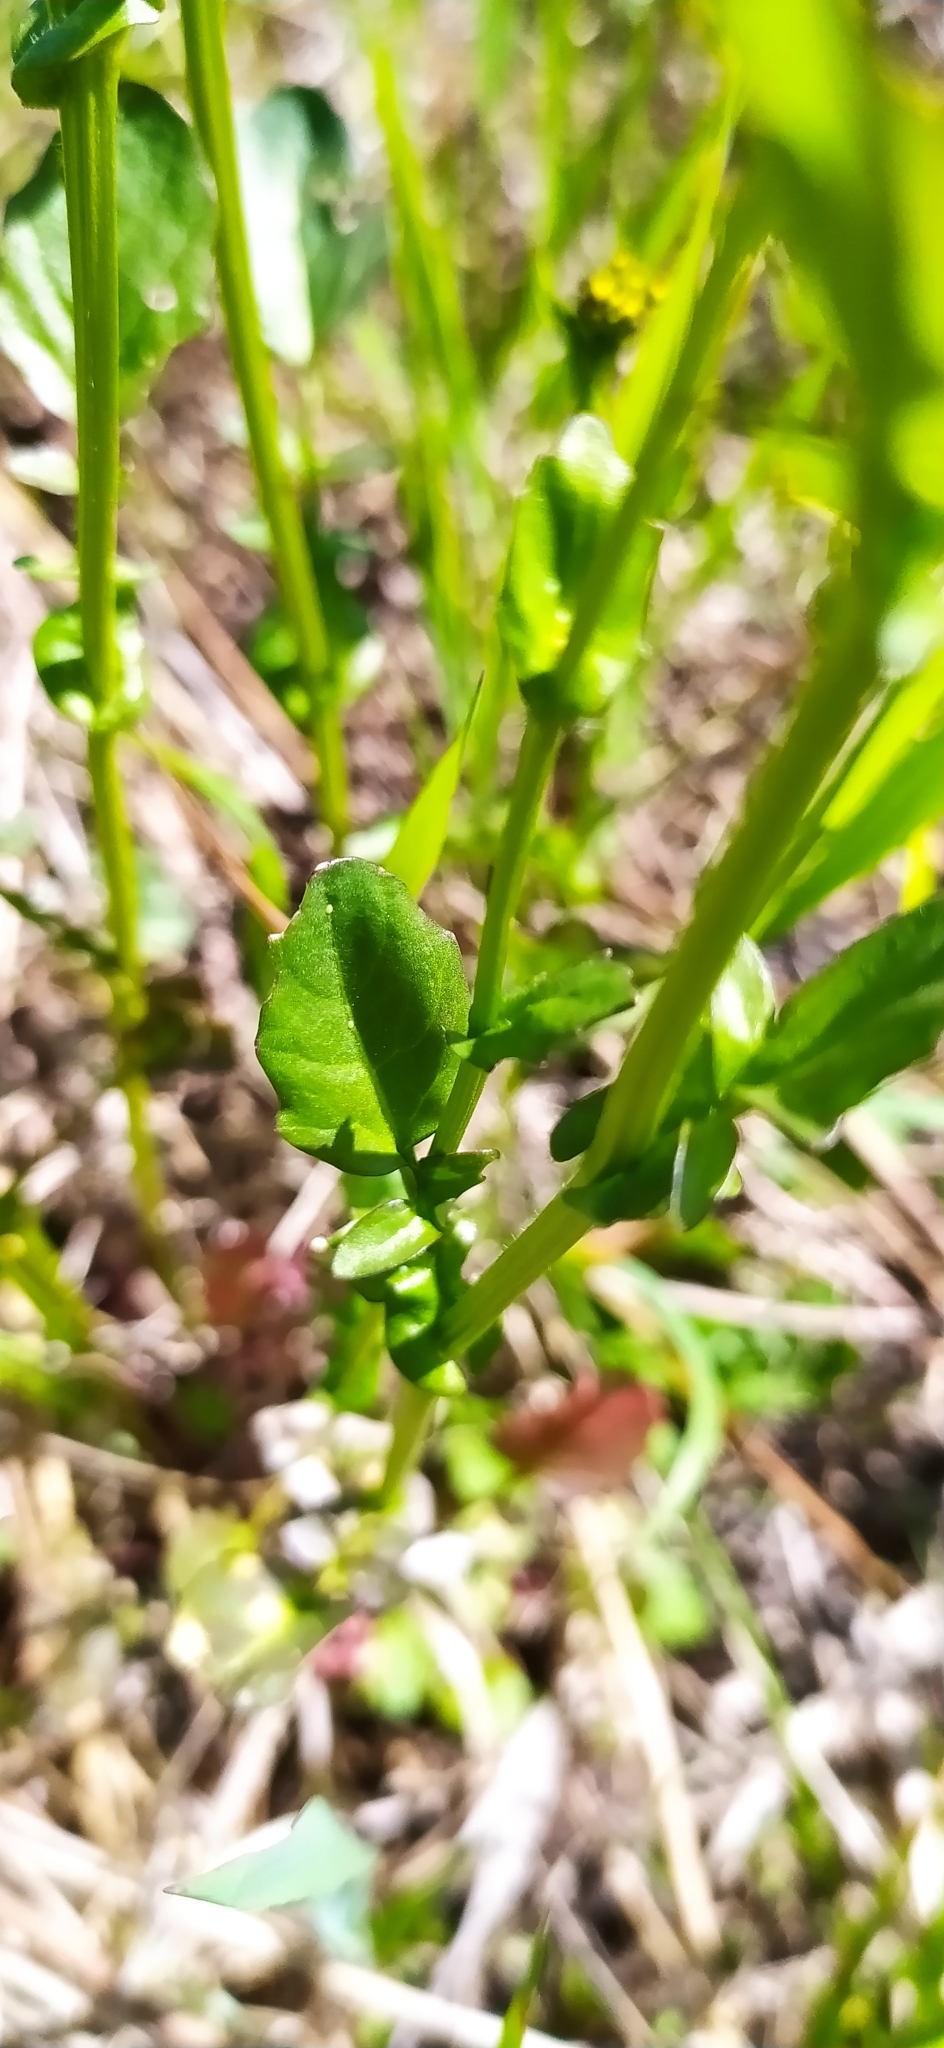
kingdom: Plantae
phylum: Tracheophyta
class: Magnoliopsida
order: Brassicales
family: Brassicaceae
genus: Barbarea
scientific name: Barbarea vulgaris
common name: Cressy-greens
